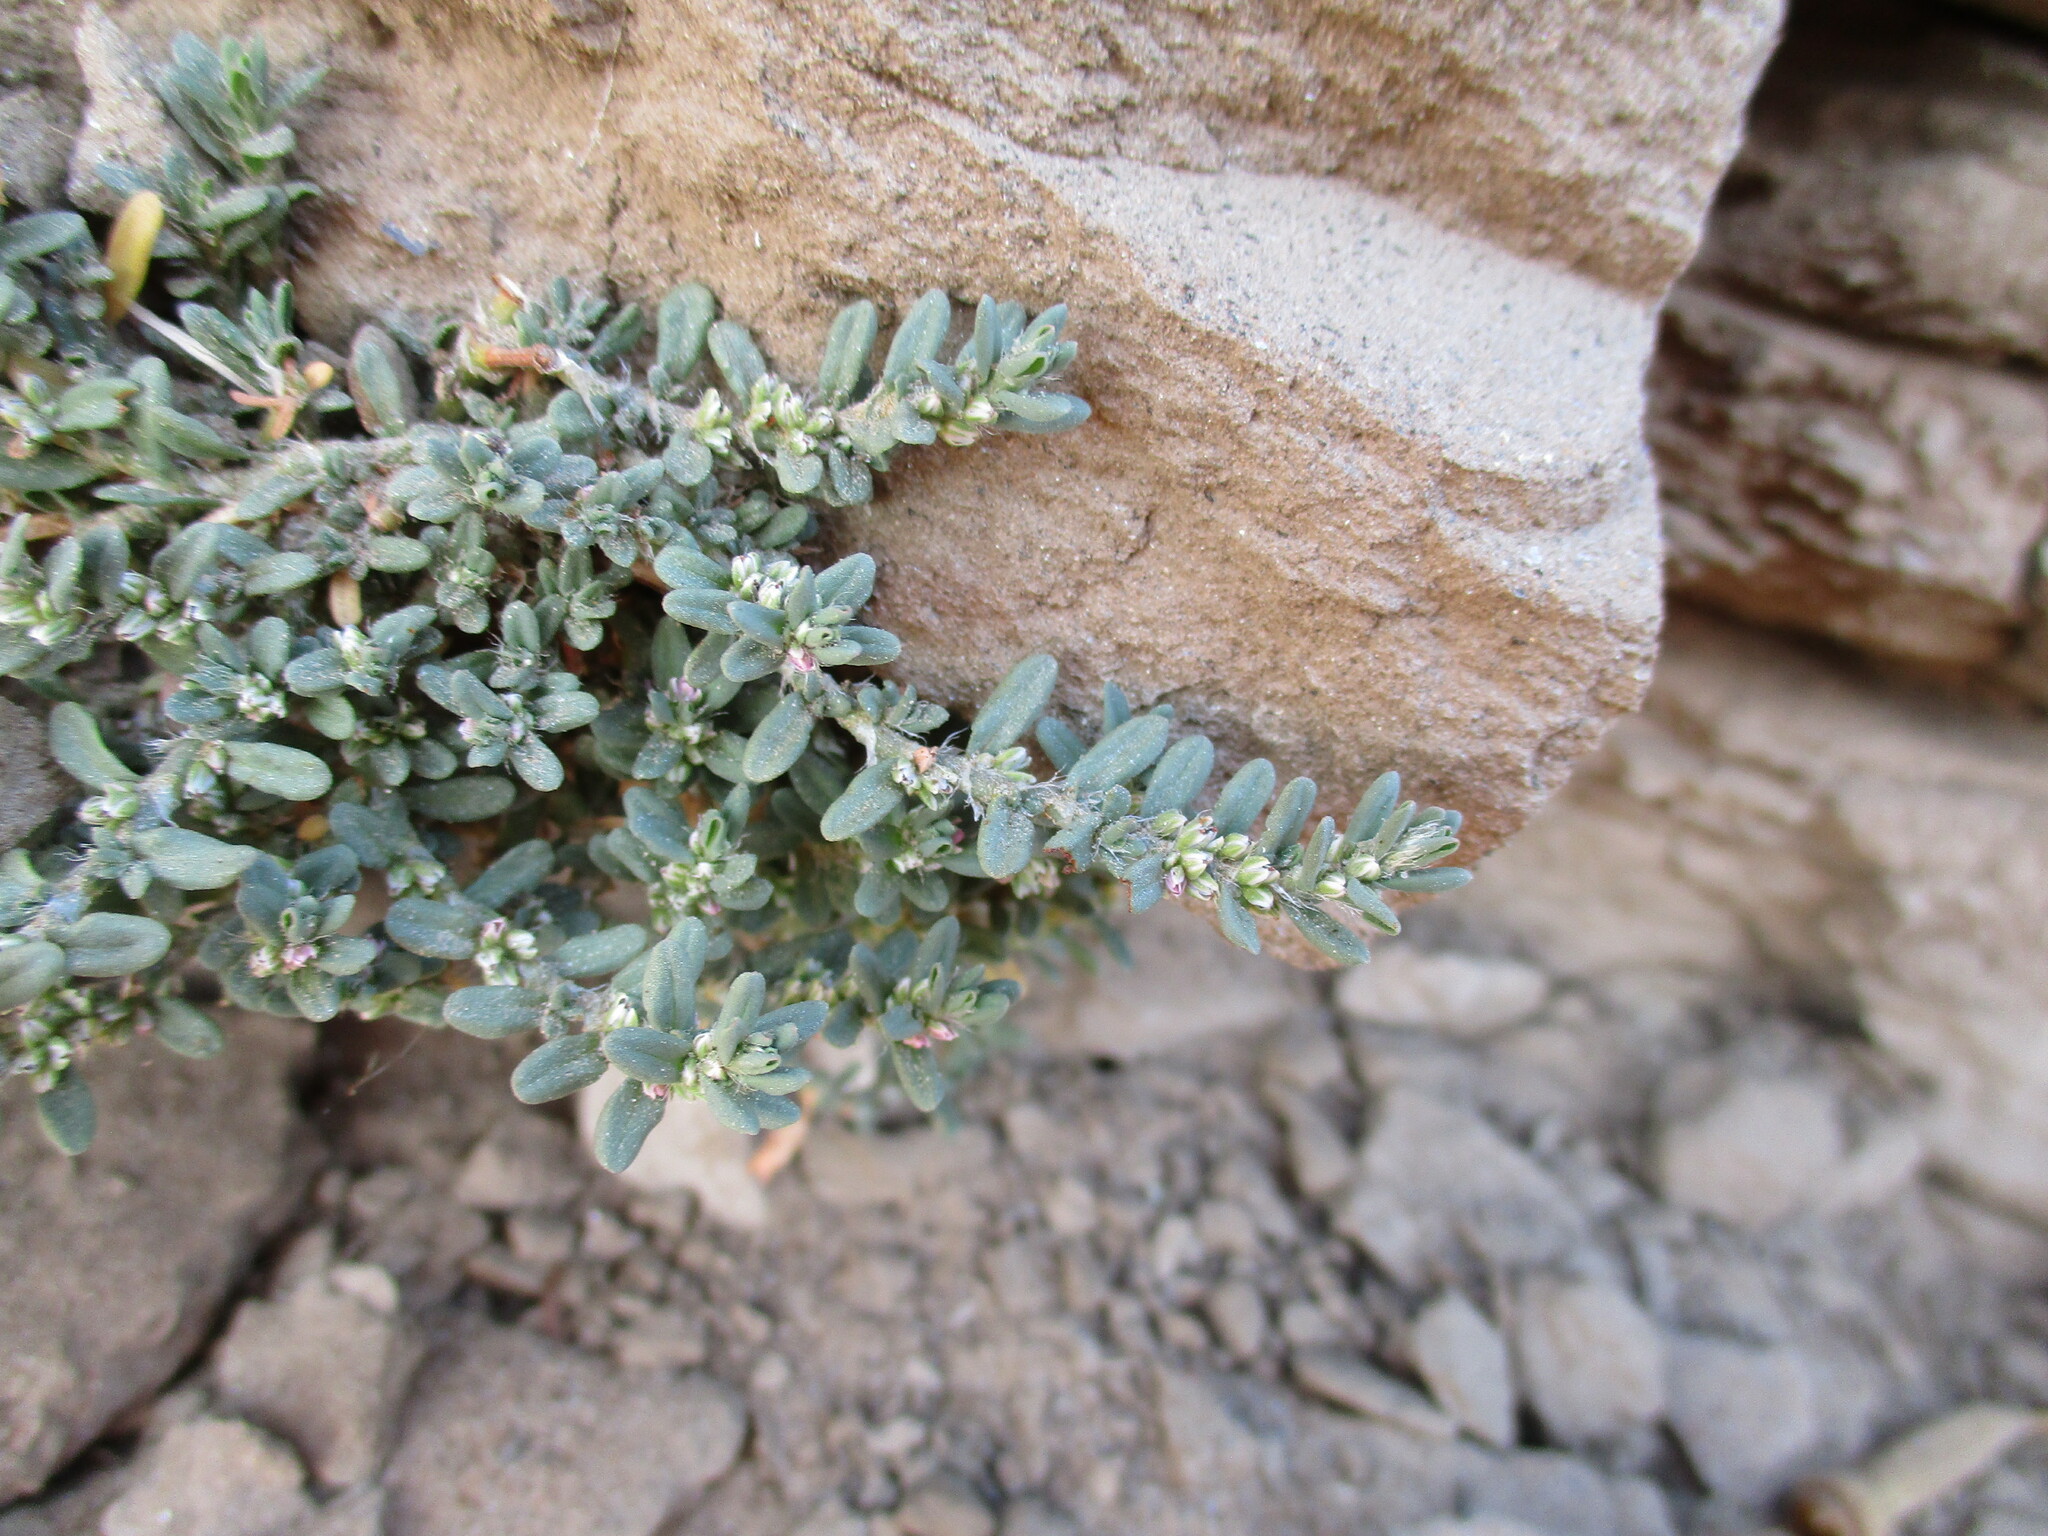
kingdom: Plantae
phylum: Tracheophyta
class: Magnoliopsida
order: Caryophyllales
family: Polygonaceae
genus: Polygonum
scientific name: Polygonum plebeium
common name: Common knotweed
